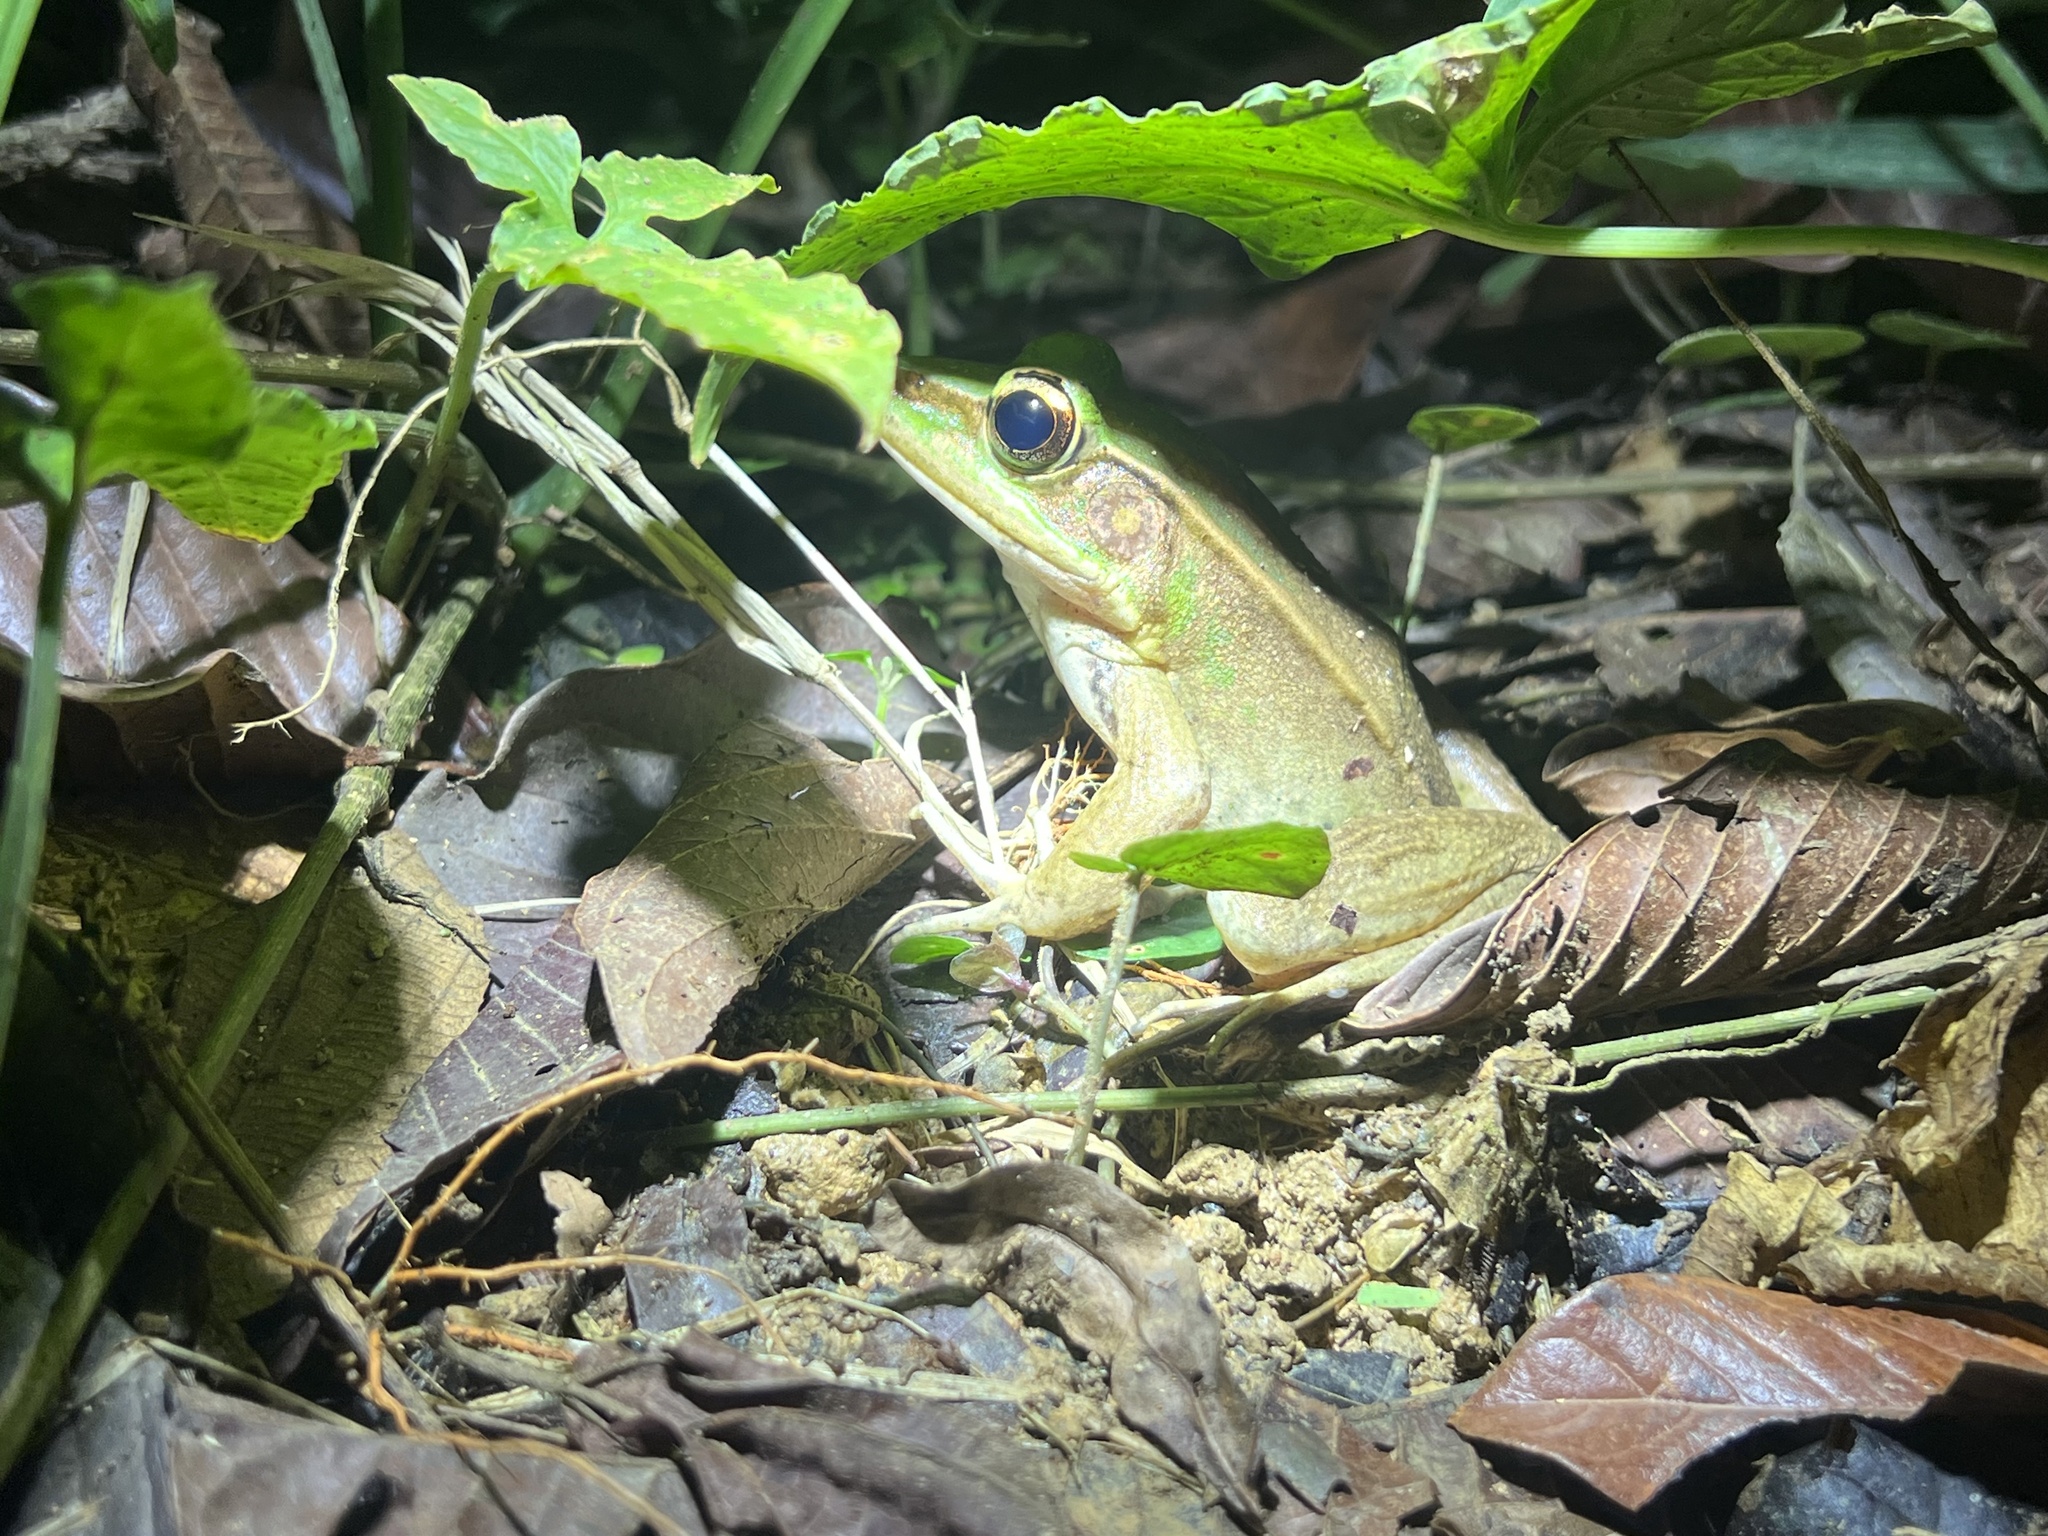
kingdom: Animalia
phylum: Chordata
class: Amphibia
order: Anura
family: Ranidae
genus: Lithobates
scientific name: Lithobates vaillanti
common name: Vaillant's frog
